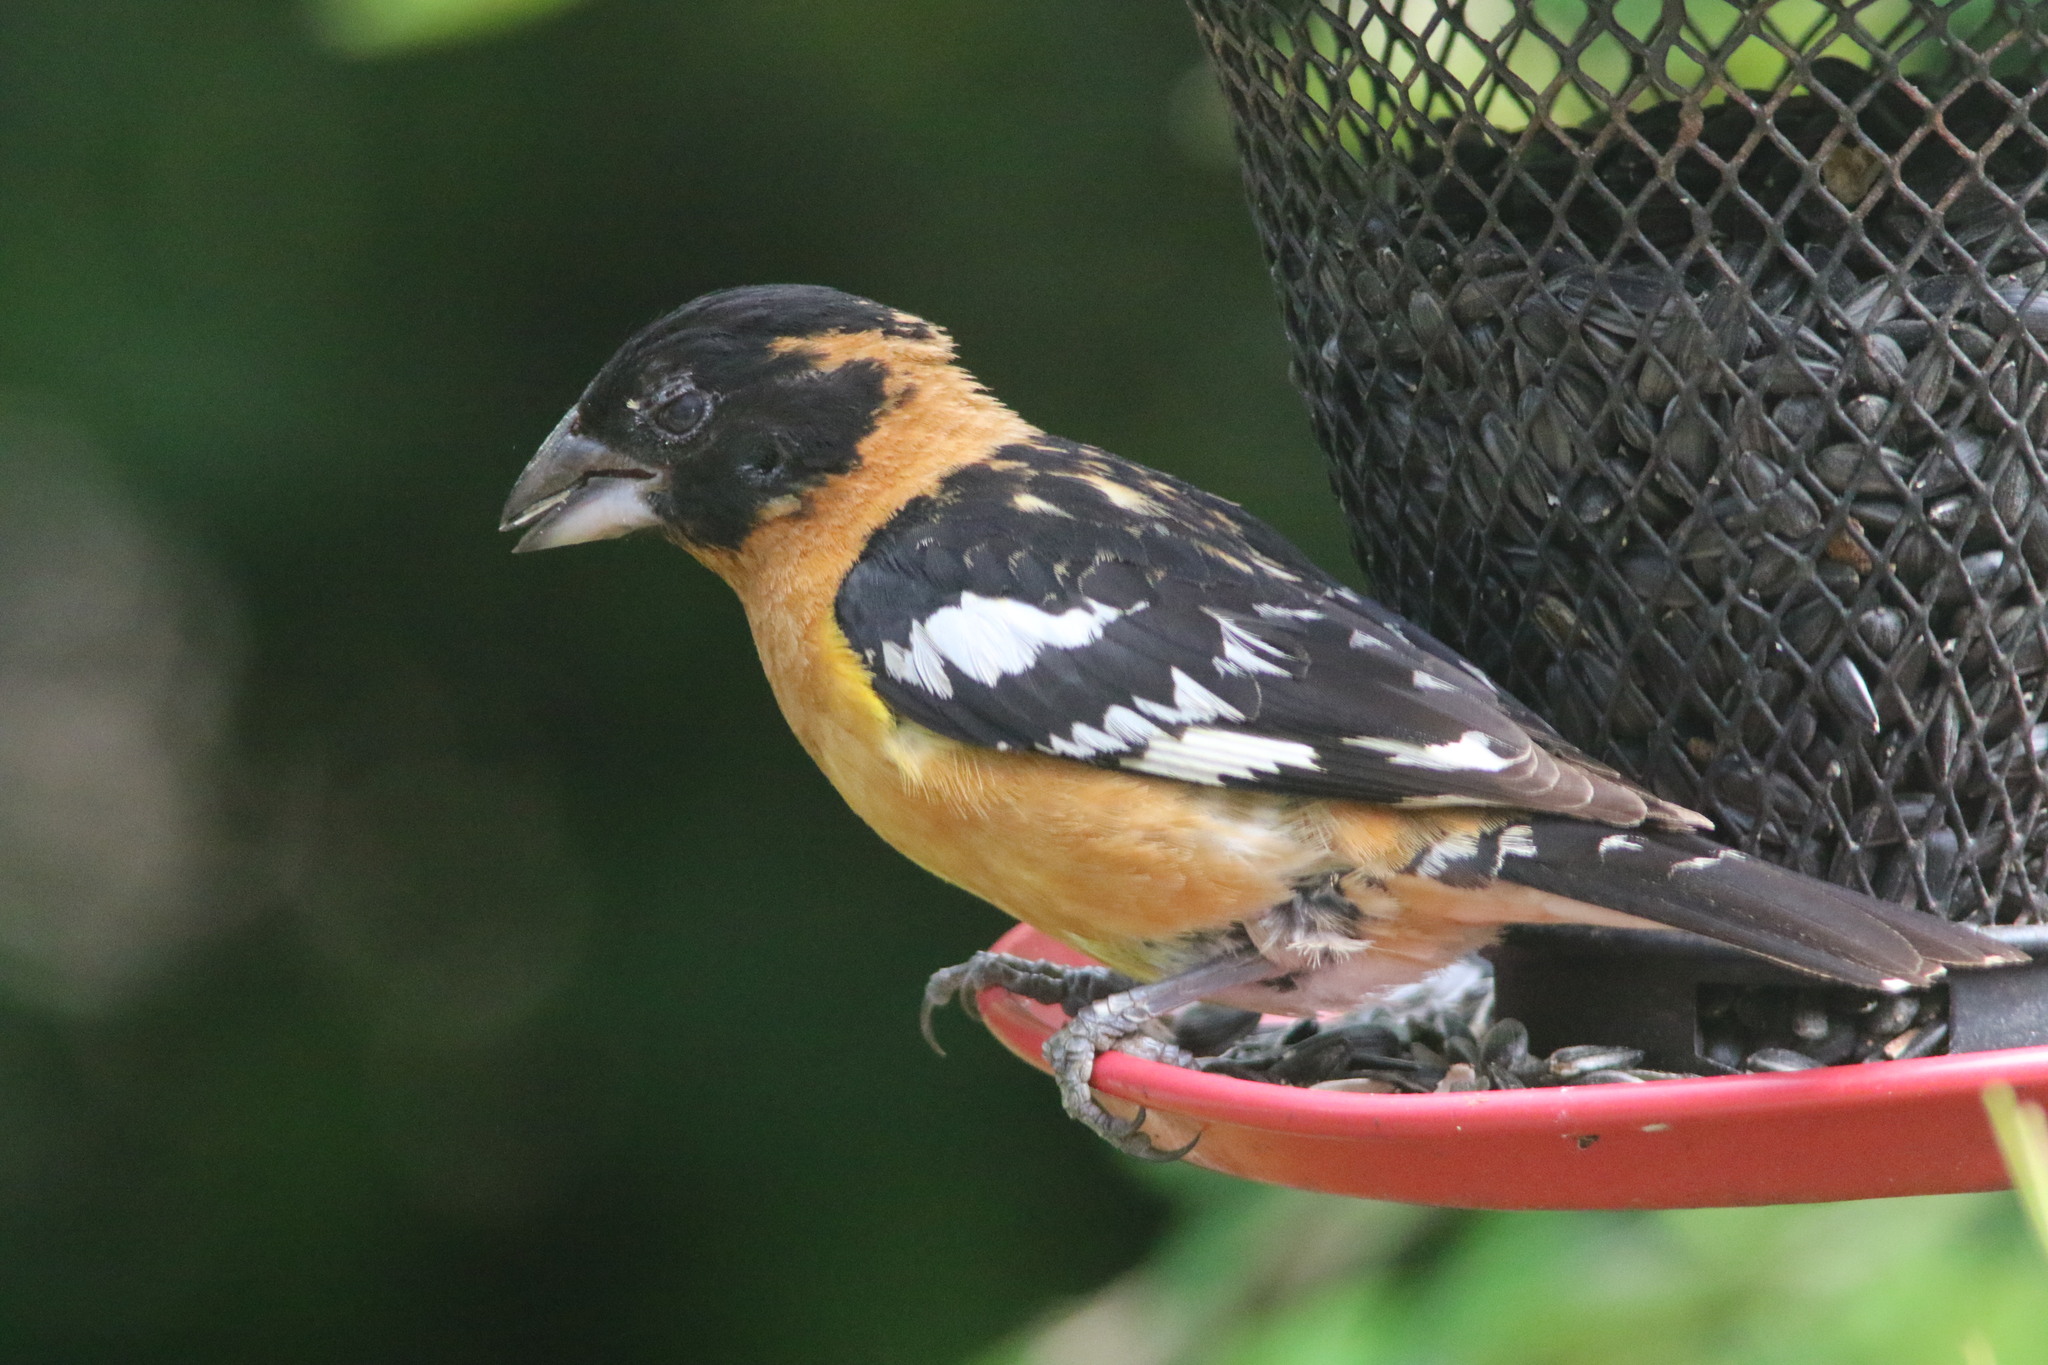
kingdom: Animalia
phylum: Chordata
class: Aves
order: Passeriformes
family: Cardinalidae
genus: Pheucticus
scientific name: Pheucticus melanocephalus
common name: Black-headed grosbeak
